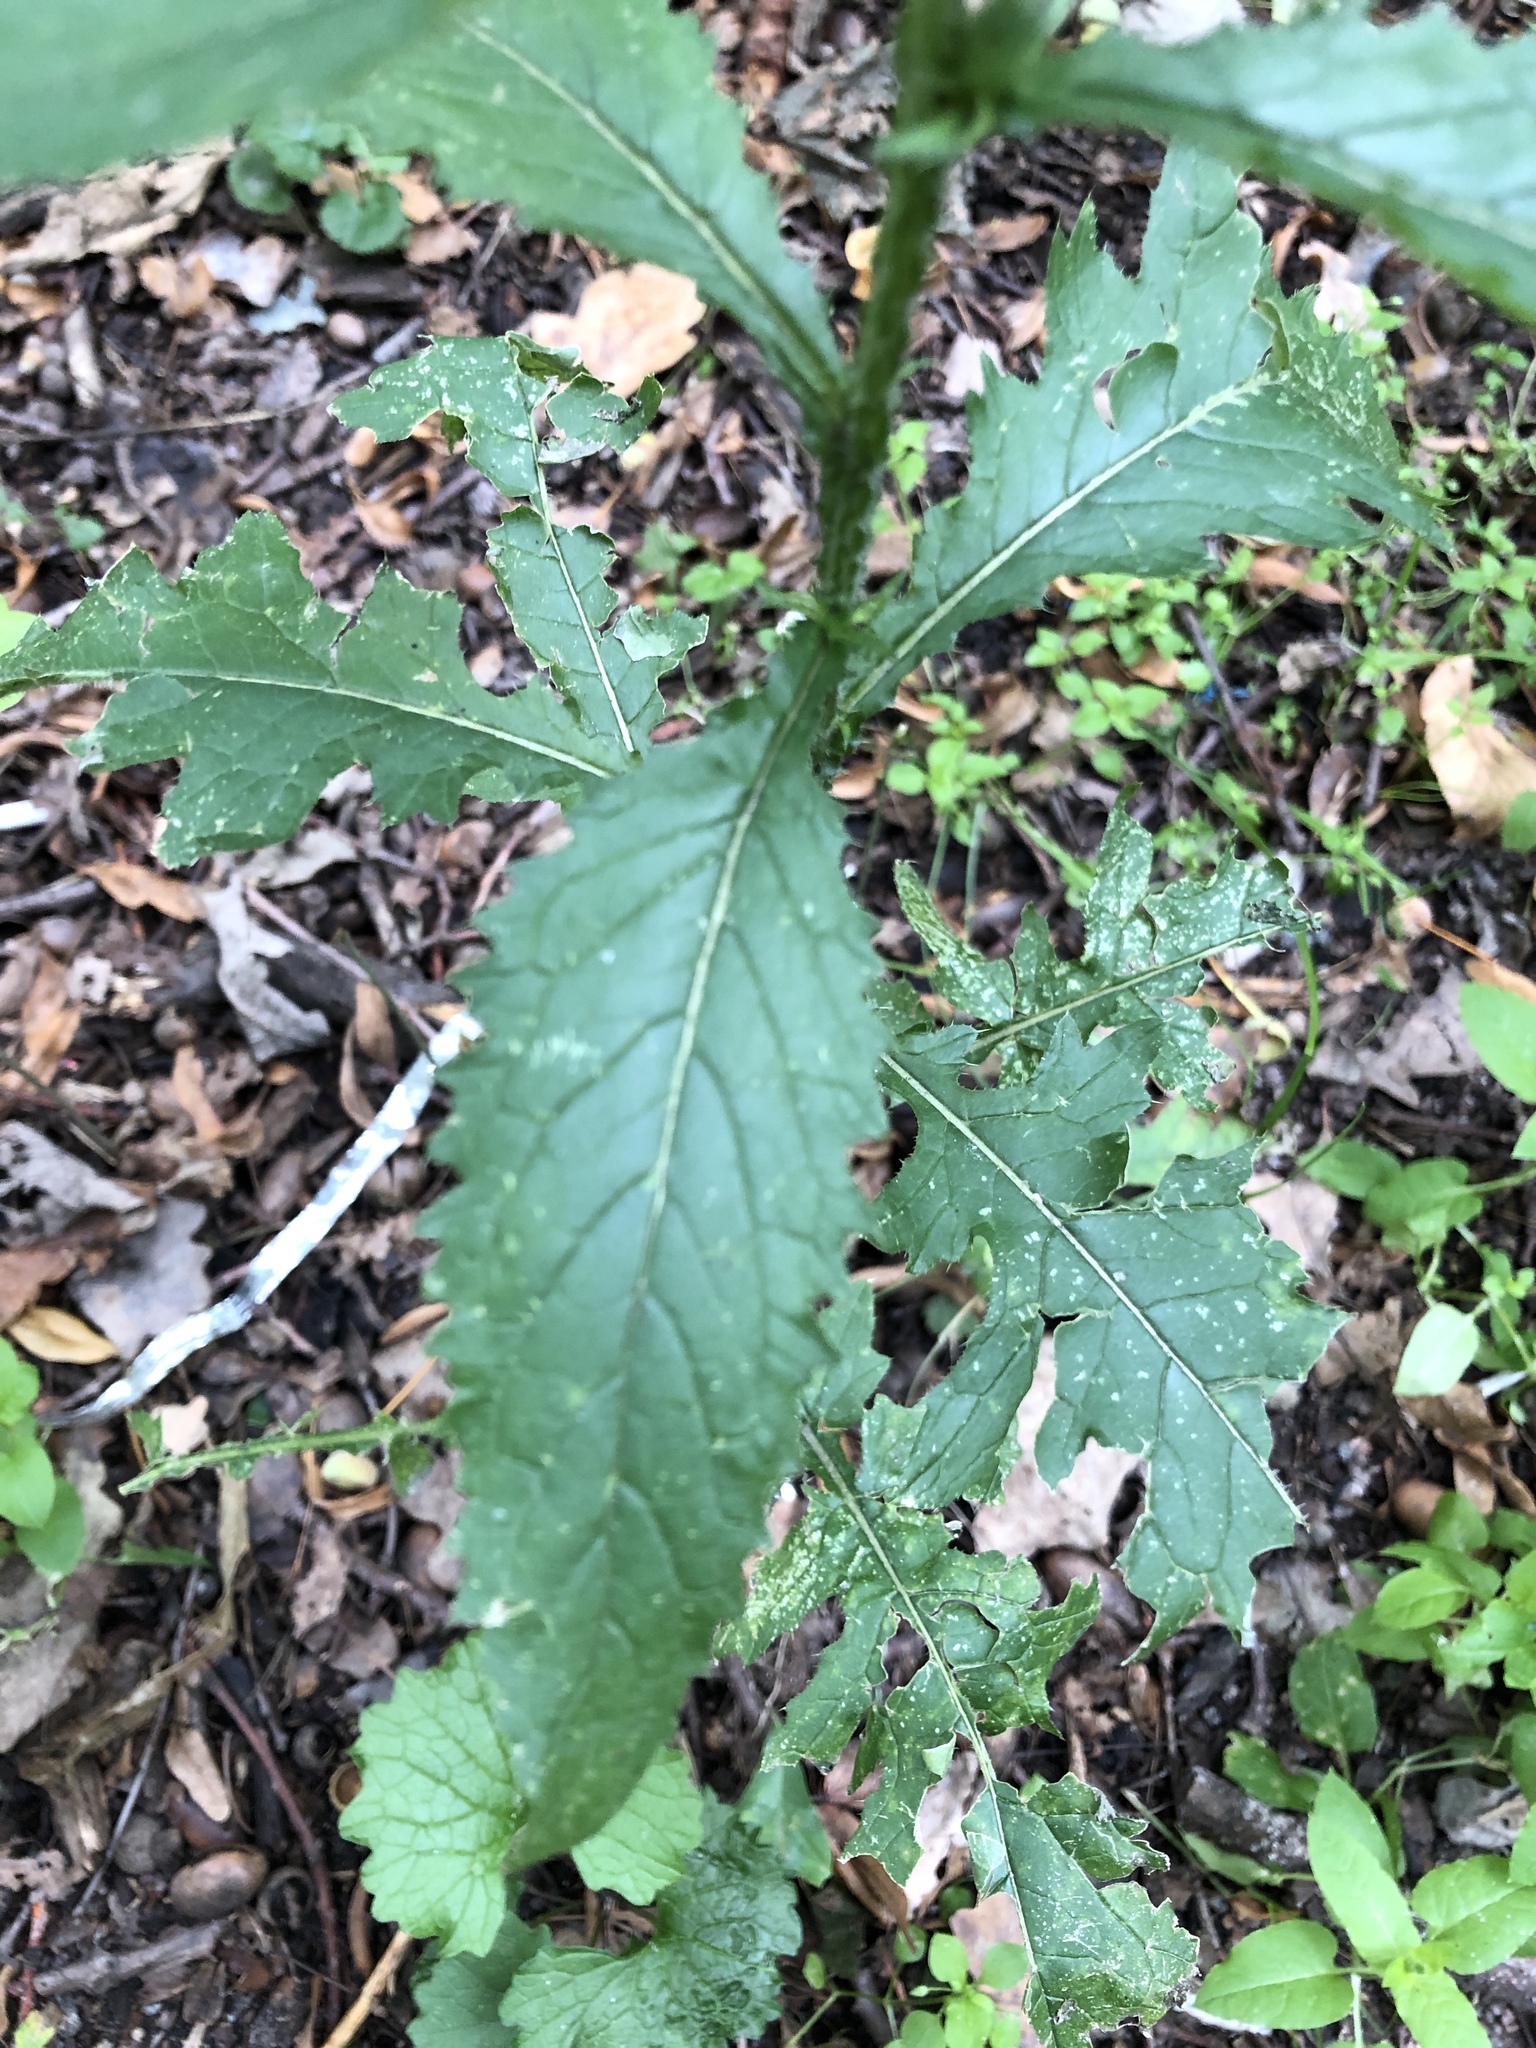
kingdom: Plantae
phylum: Tracheophyta
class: Magnoliopsida
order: Asterales
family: Asteraceae
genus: Carduus
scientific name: Carduus crispus
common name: Welted thistle
